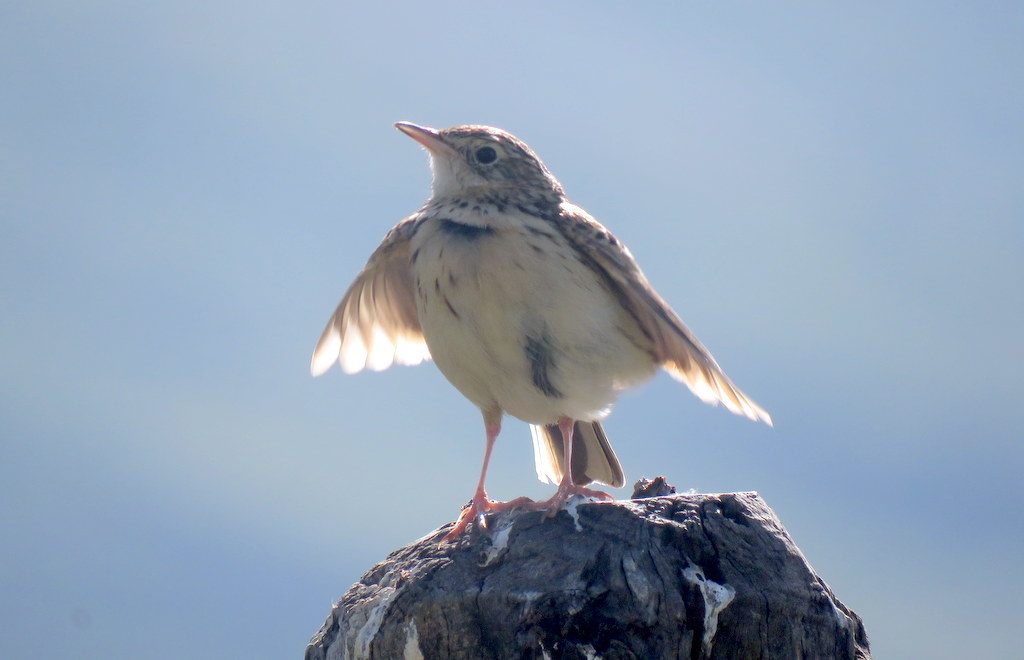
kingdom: Animalia
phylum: Chordata
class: Aves
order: Passeriformes
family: Motacillidae
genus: Anthus
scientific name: Anthus hellmayri
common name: Hellmayr's pipit
